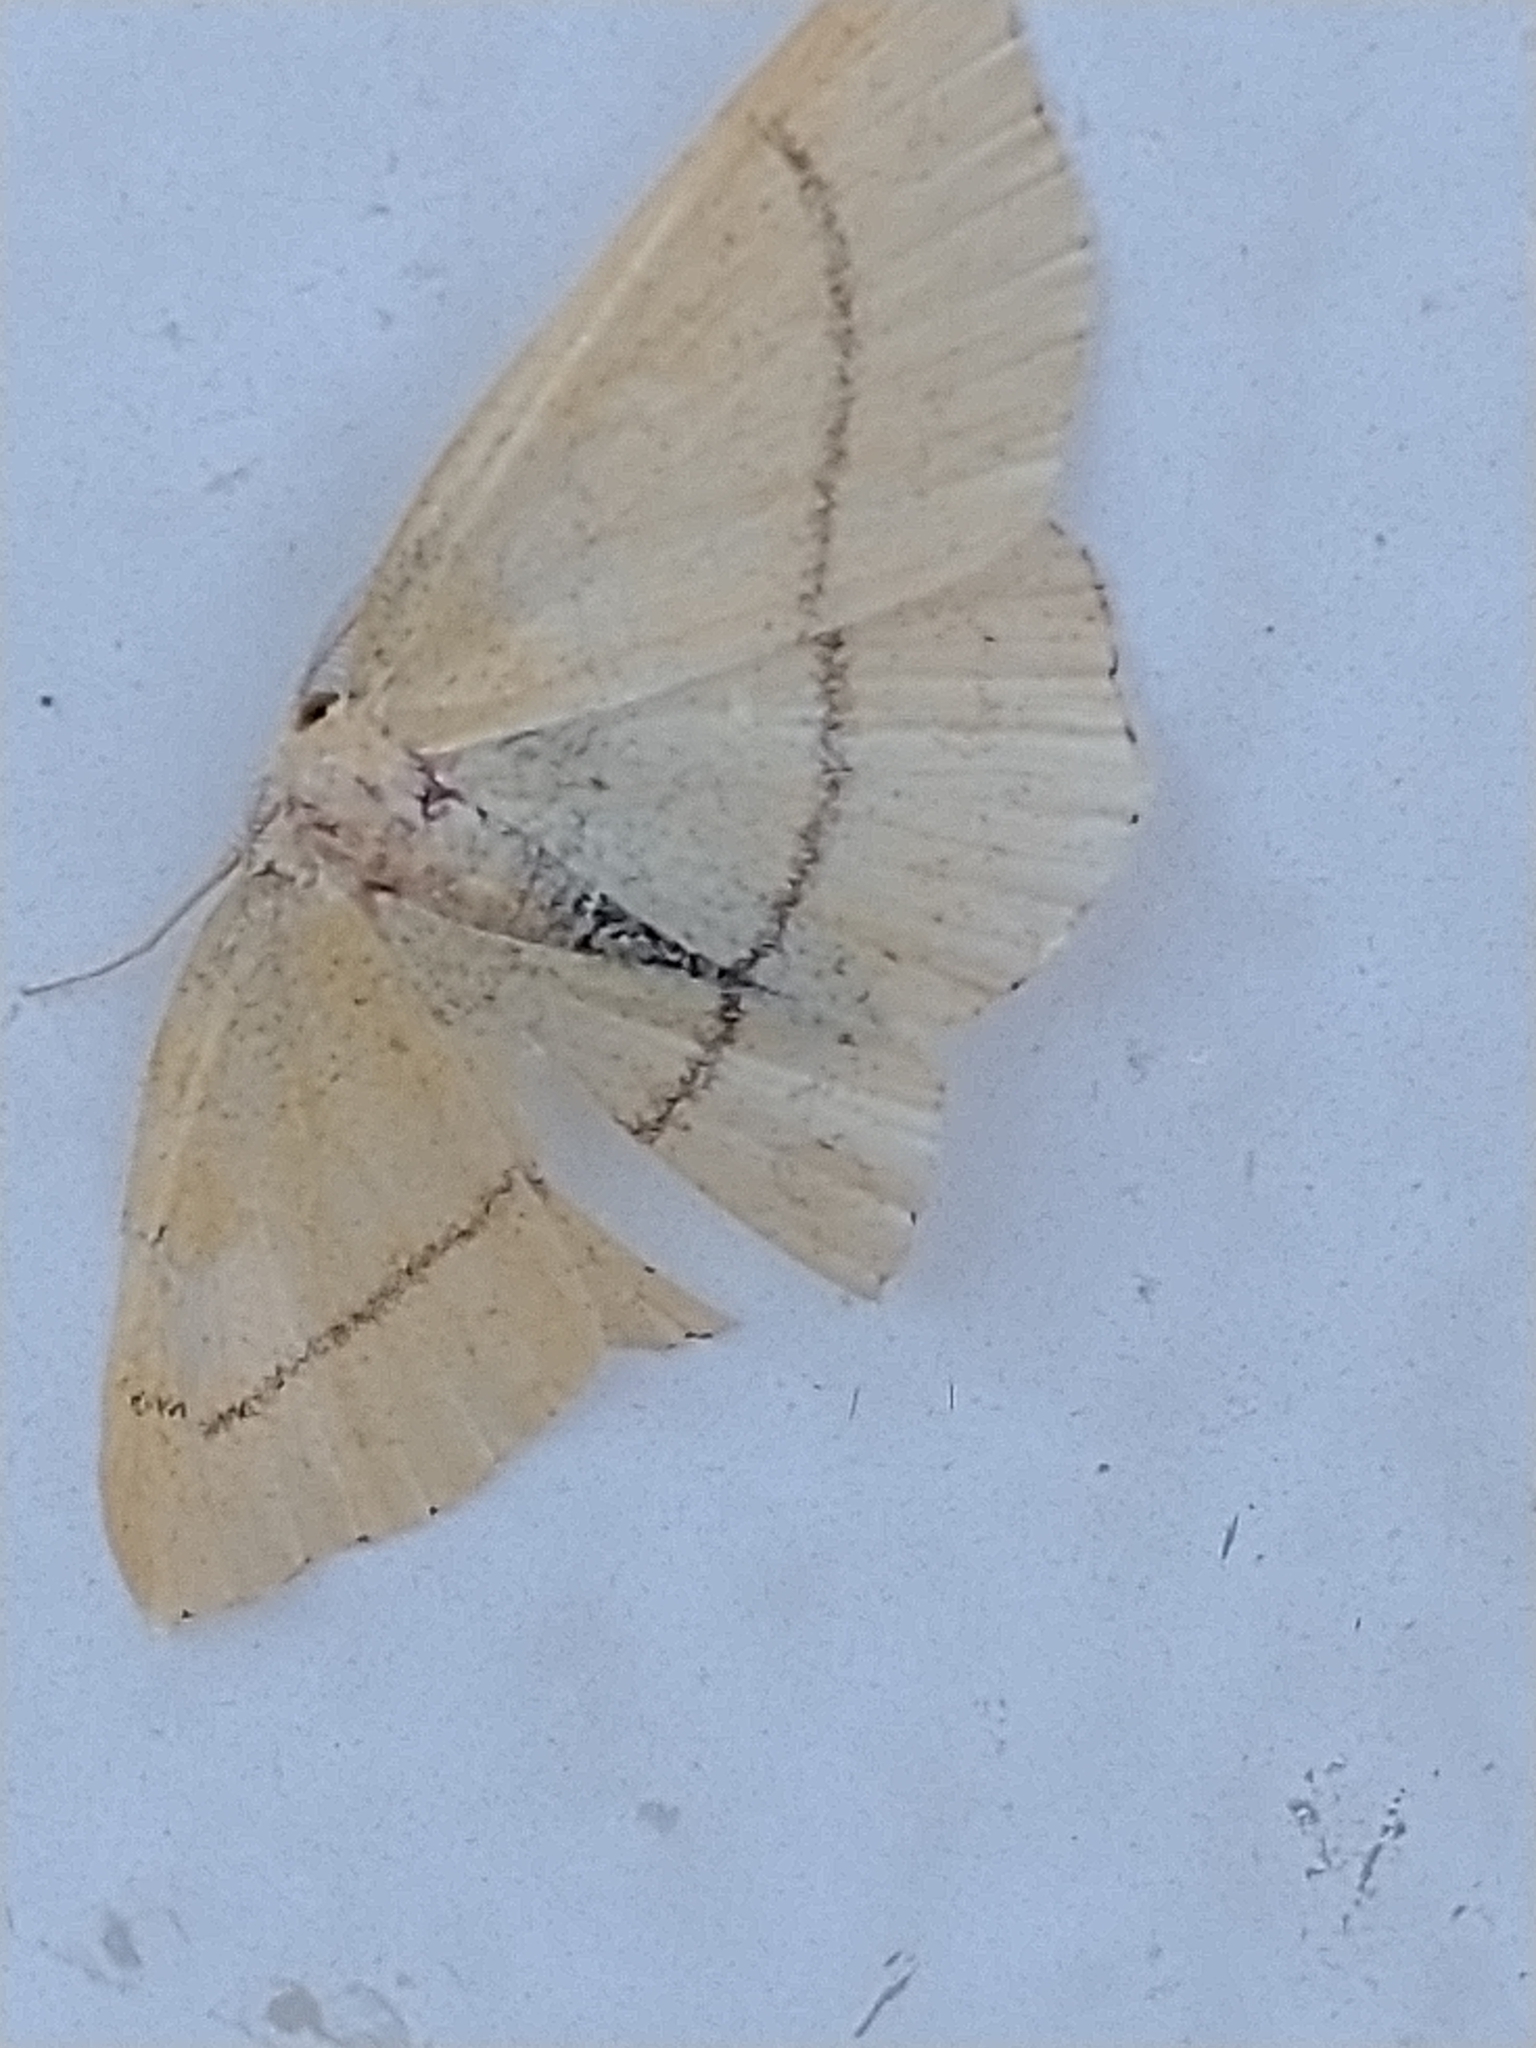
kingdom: Animalia
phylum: Arthropoda
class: Insecta
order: Lepidoptera
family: Geometridae
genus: Cyclophora
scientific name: Cyclophora linearia
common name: Clay triple-lines
